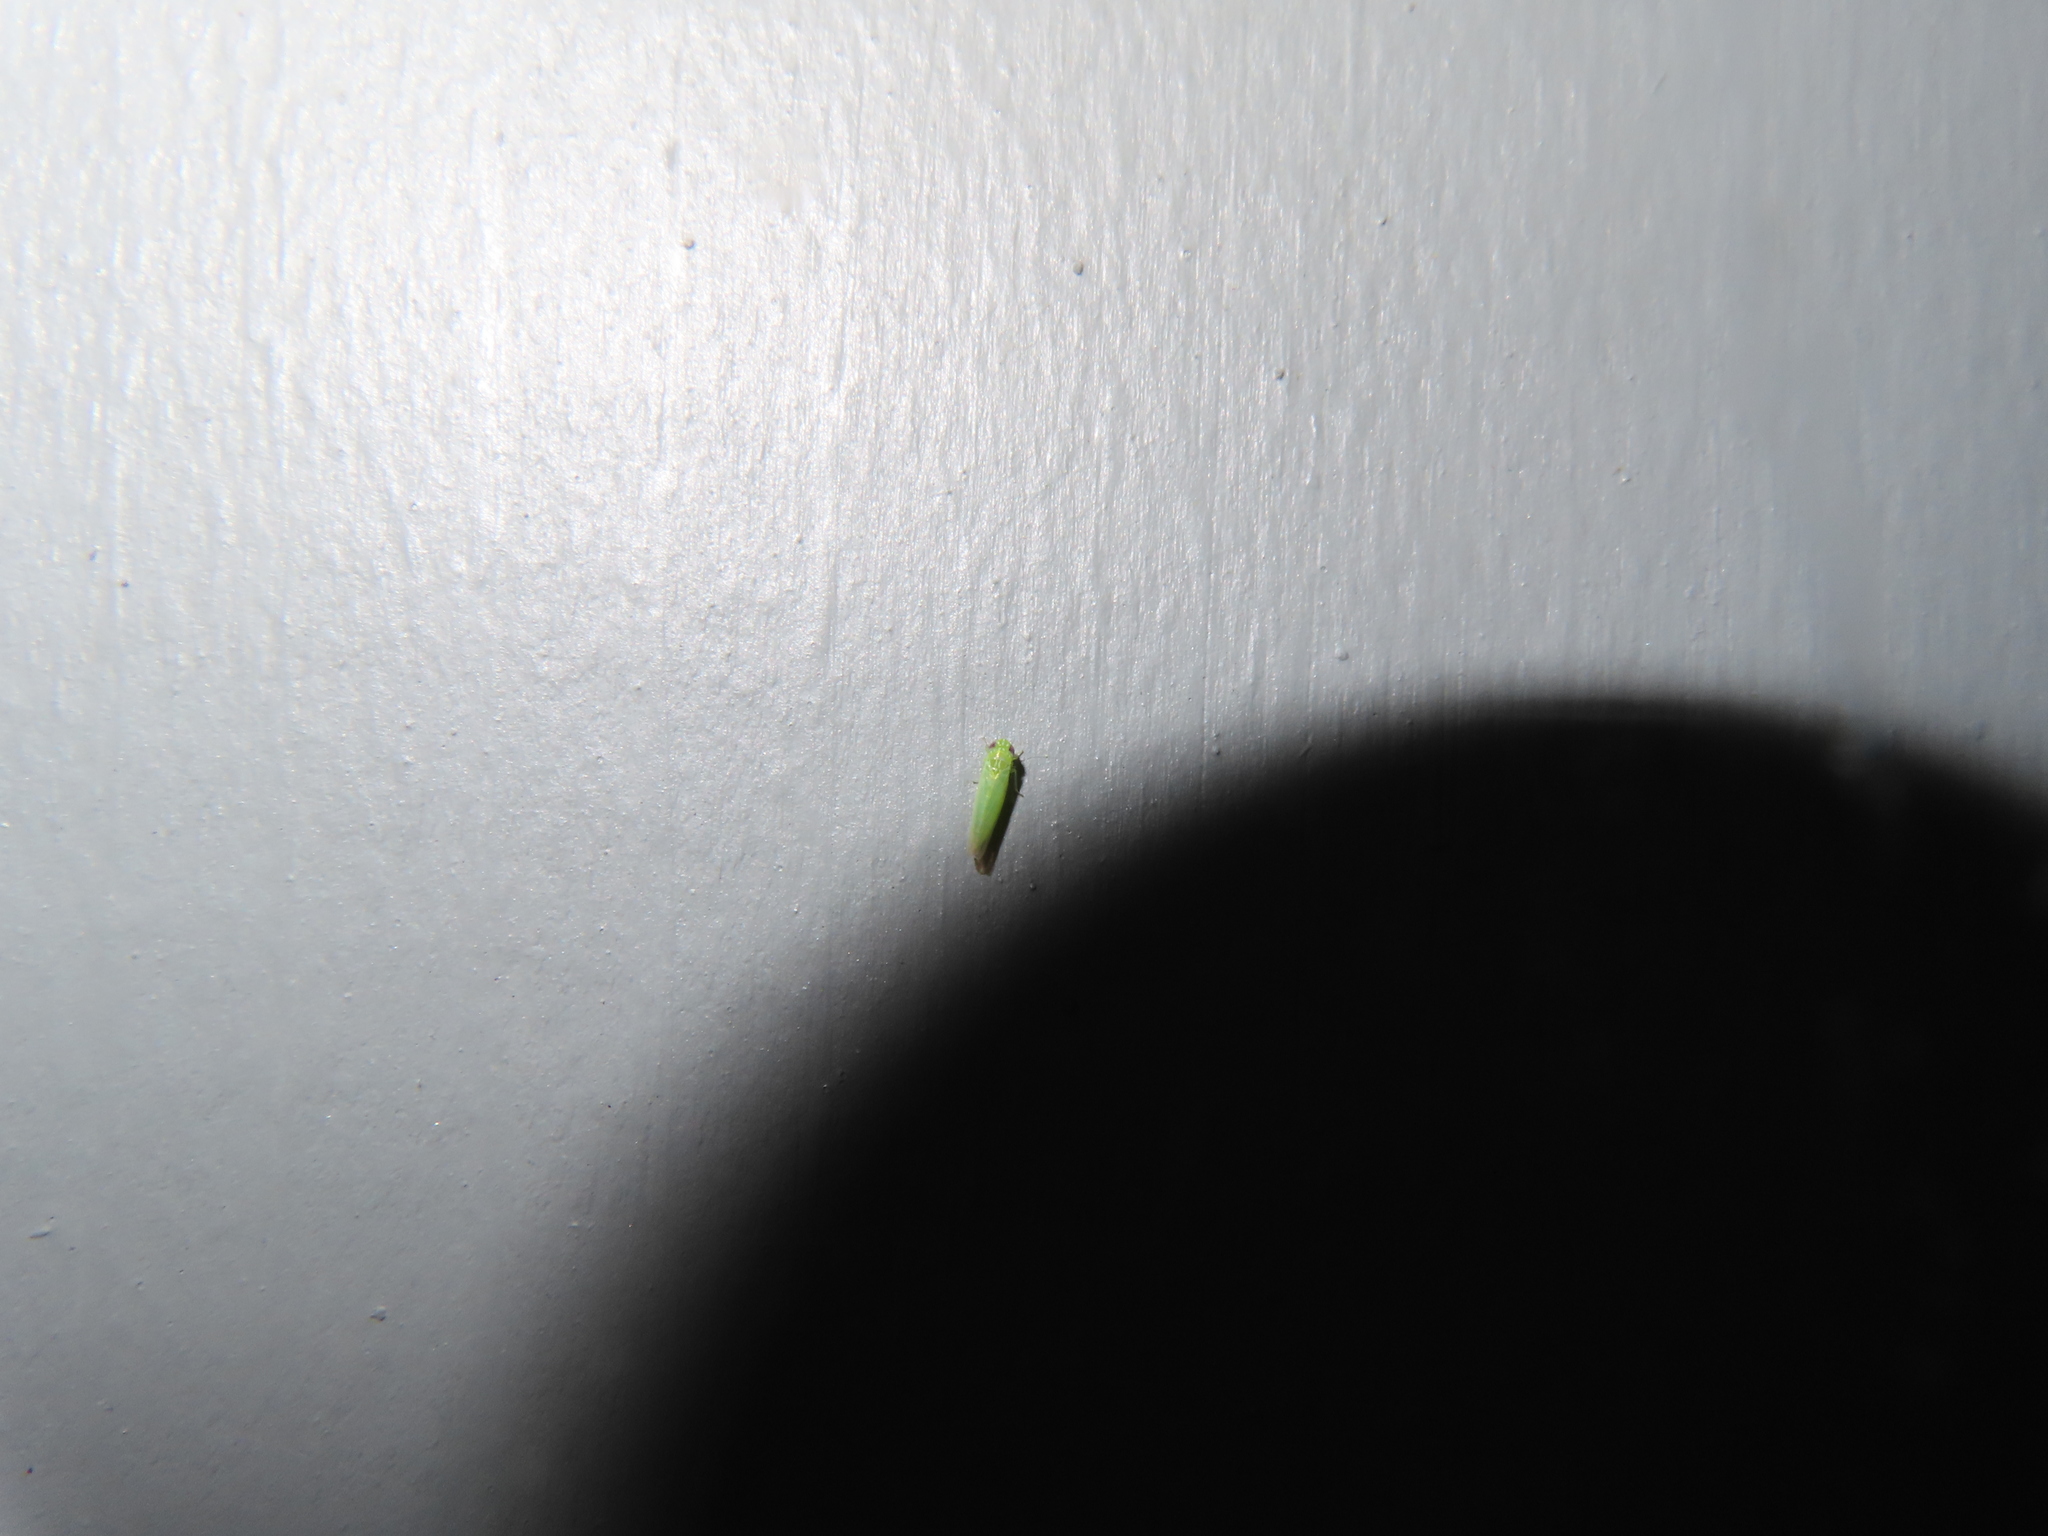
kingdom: Animalia
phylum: Arthropoda
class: Insecta
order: Hemiptera
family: Cicadellidae
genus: Empoasca
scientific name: Empoasca fabae
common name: Potato leafhopper
